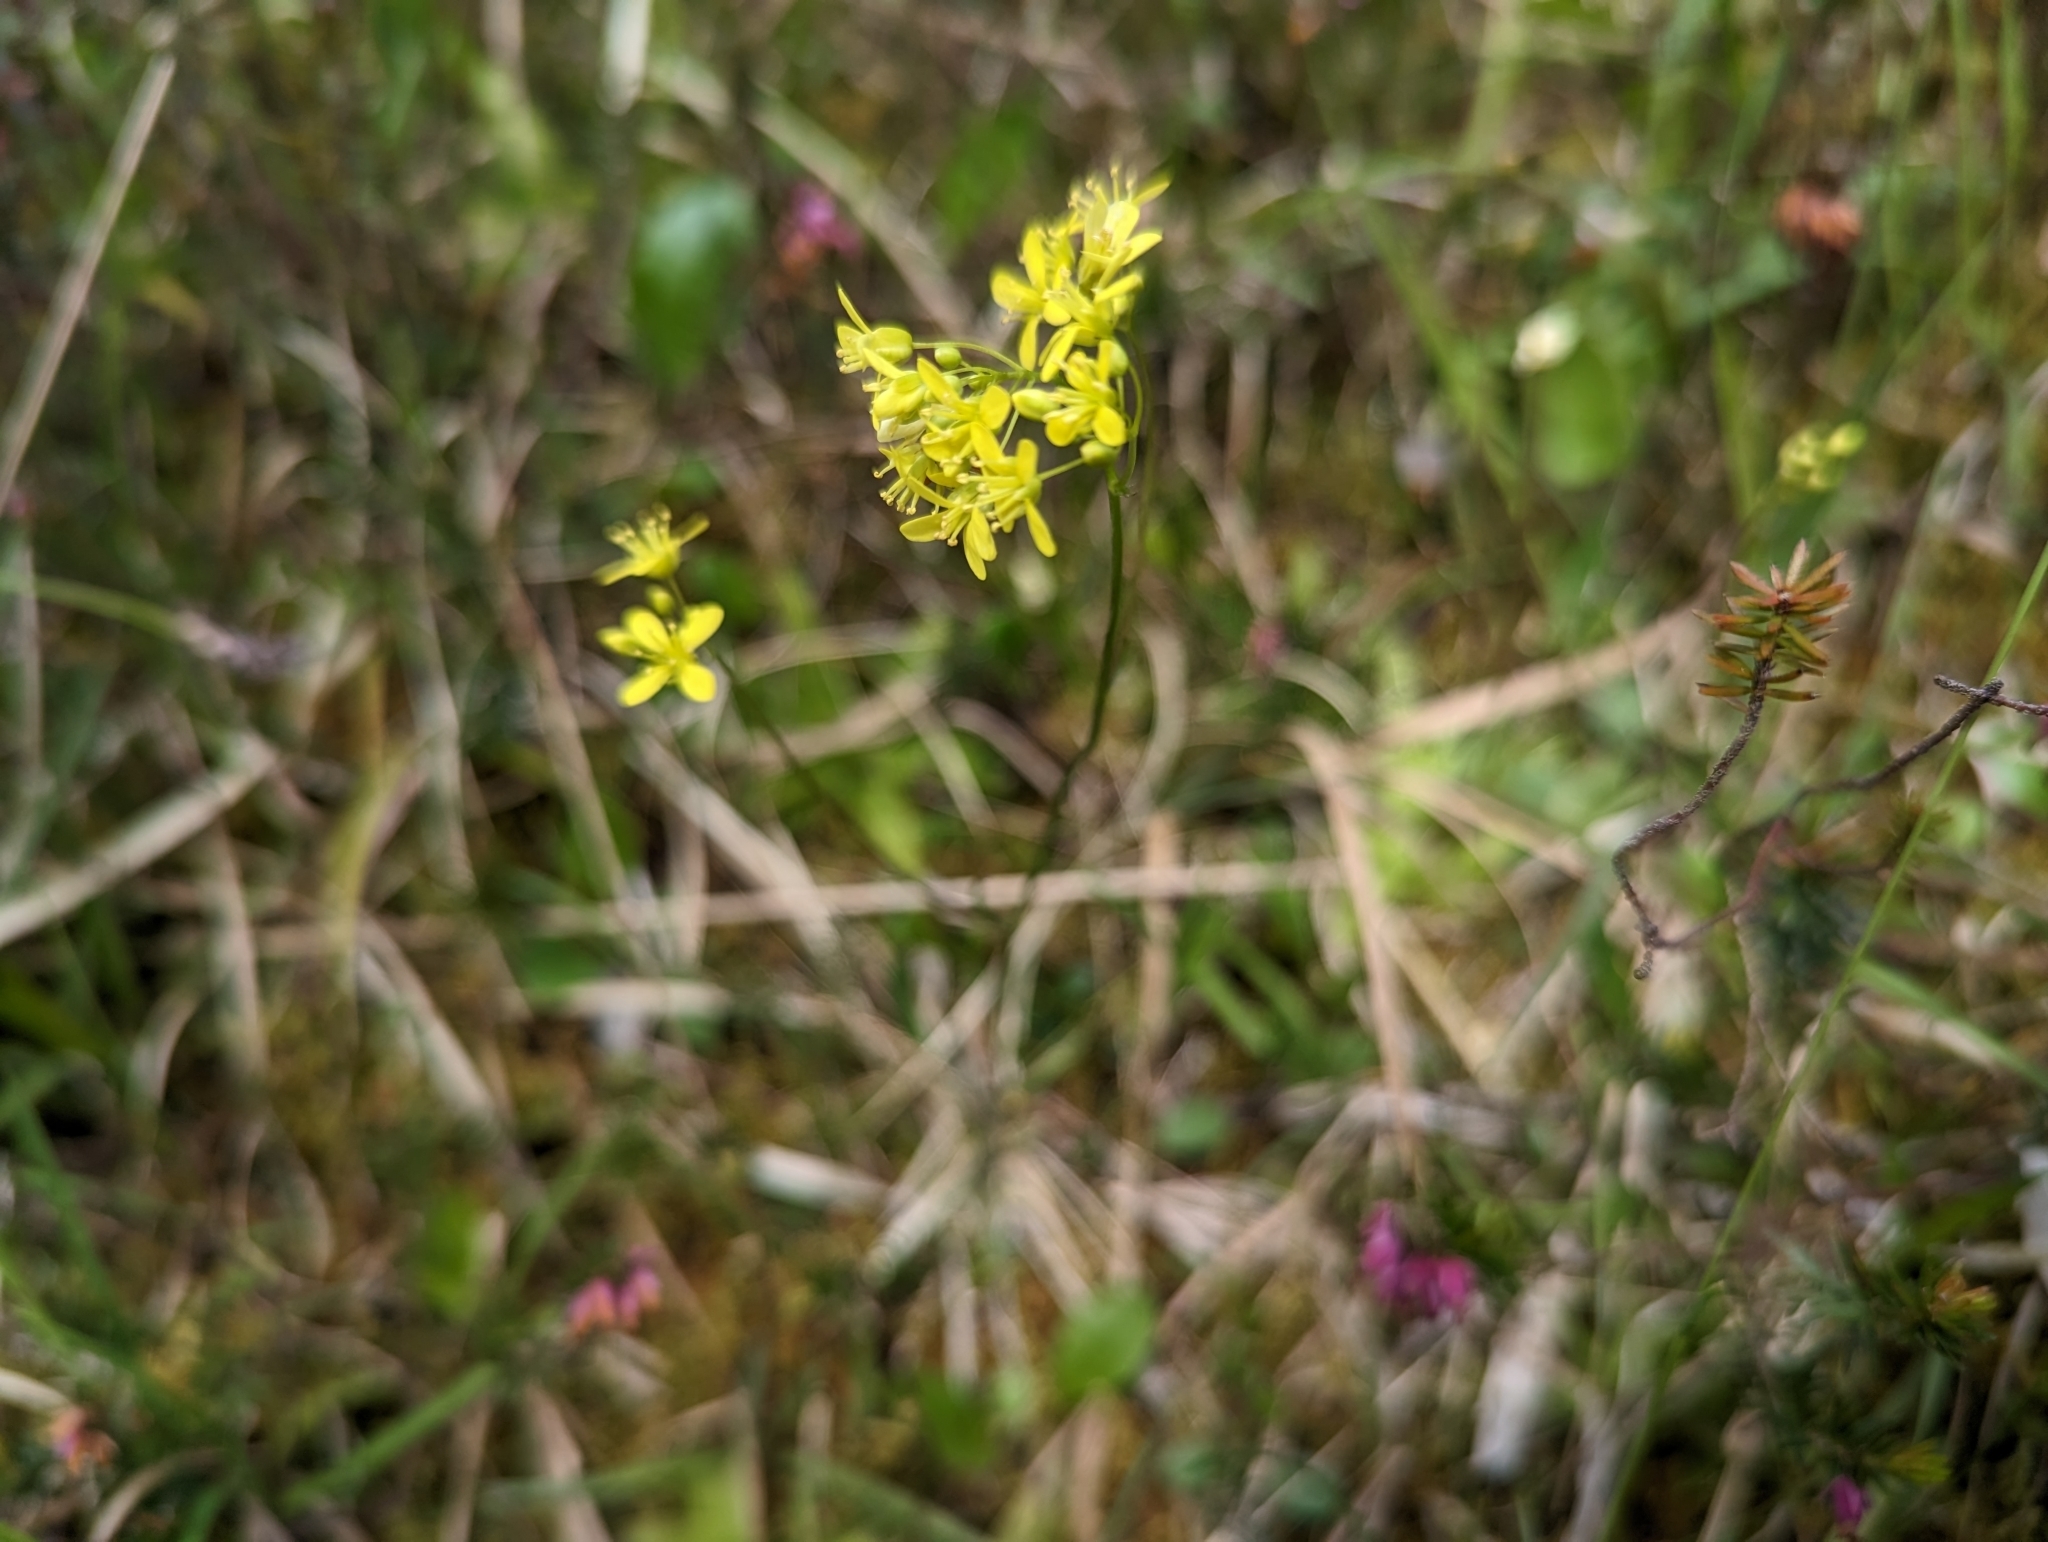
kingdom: Plantae
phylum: Tracheophyta
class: Magnoliopsida
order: Brassicales
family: Brassicaceae
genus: Biscutella
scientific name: Biscutella laevigata
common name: Buckler mustard
